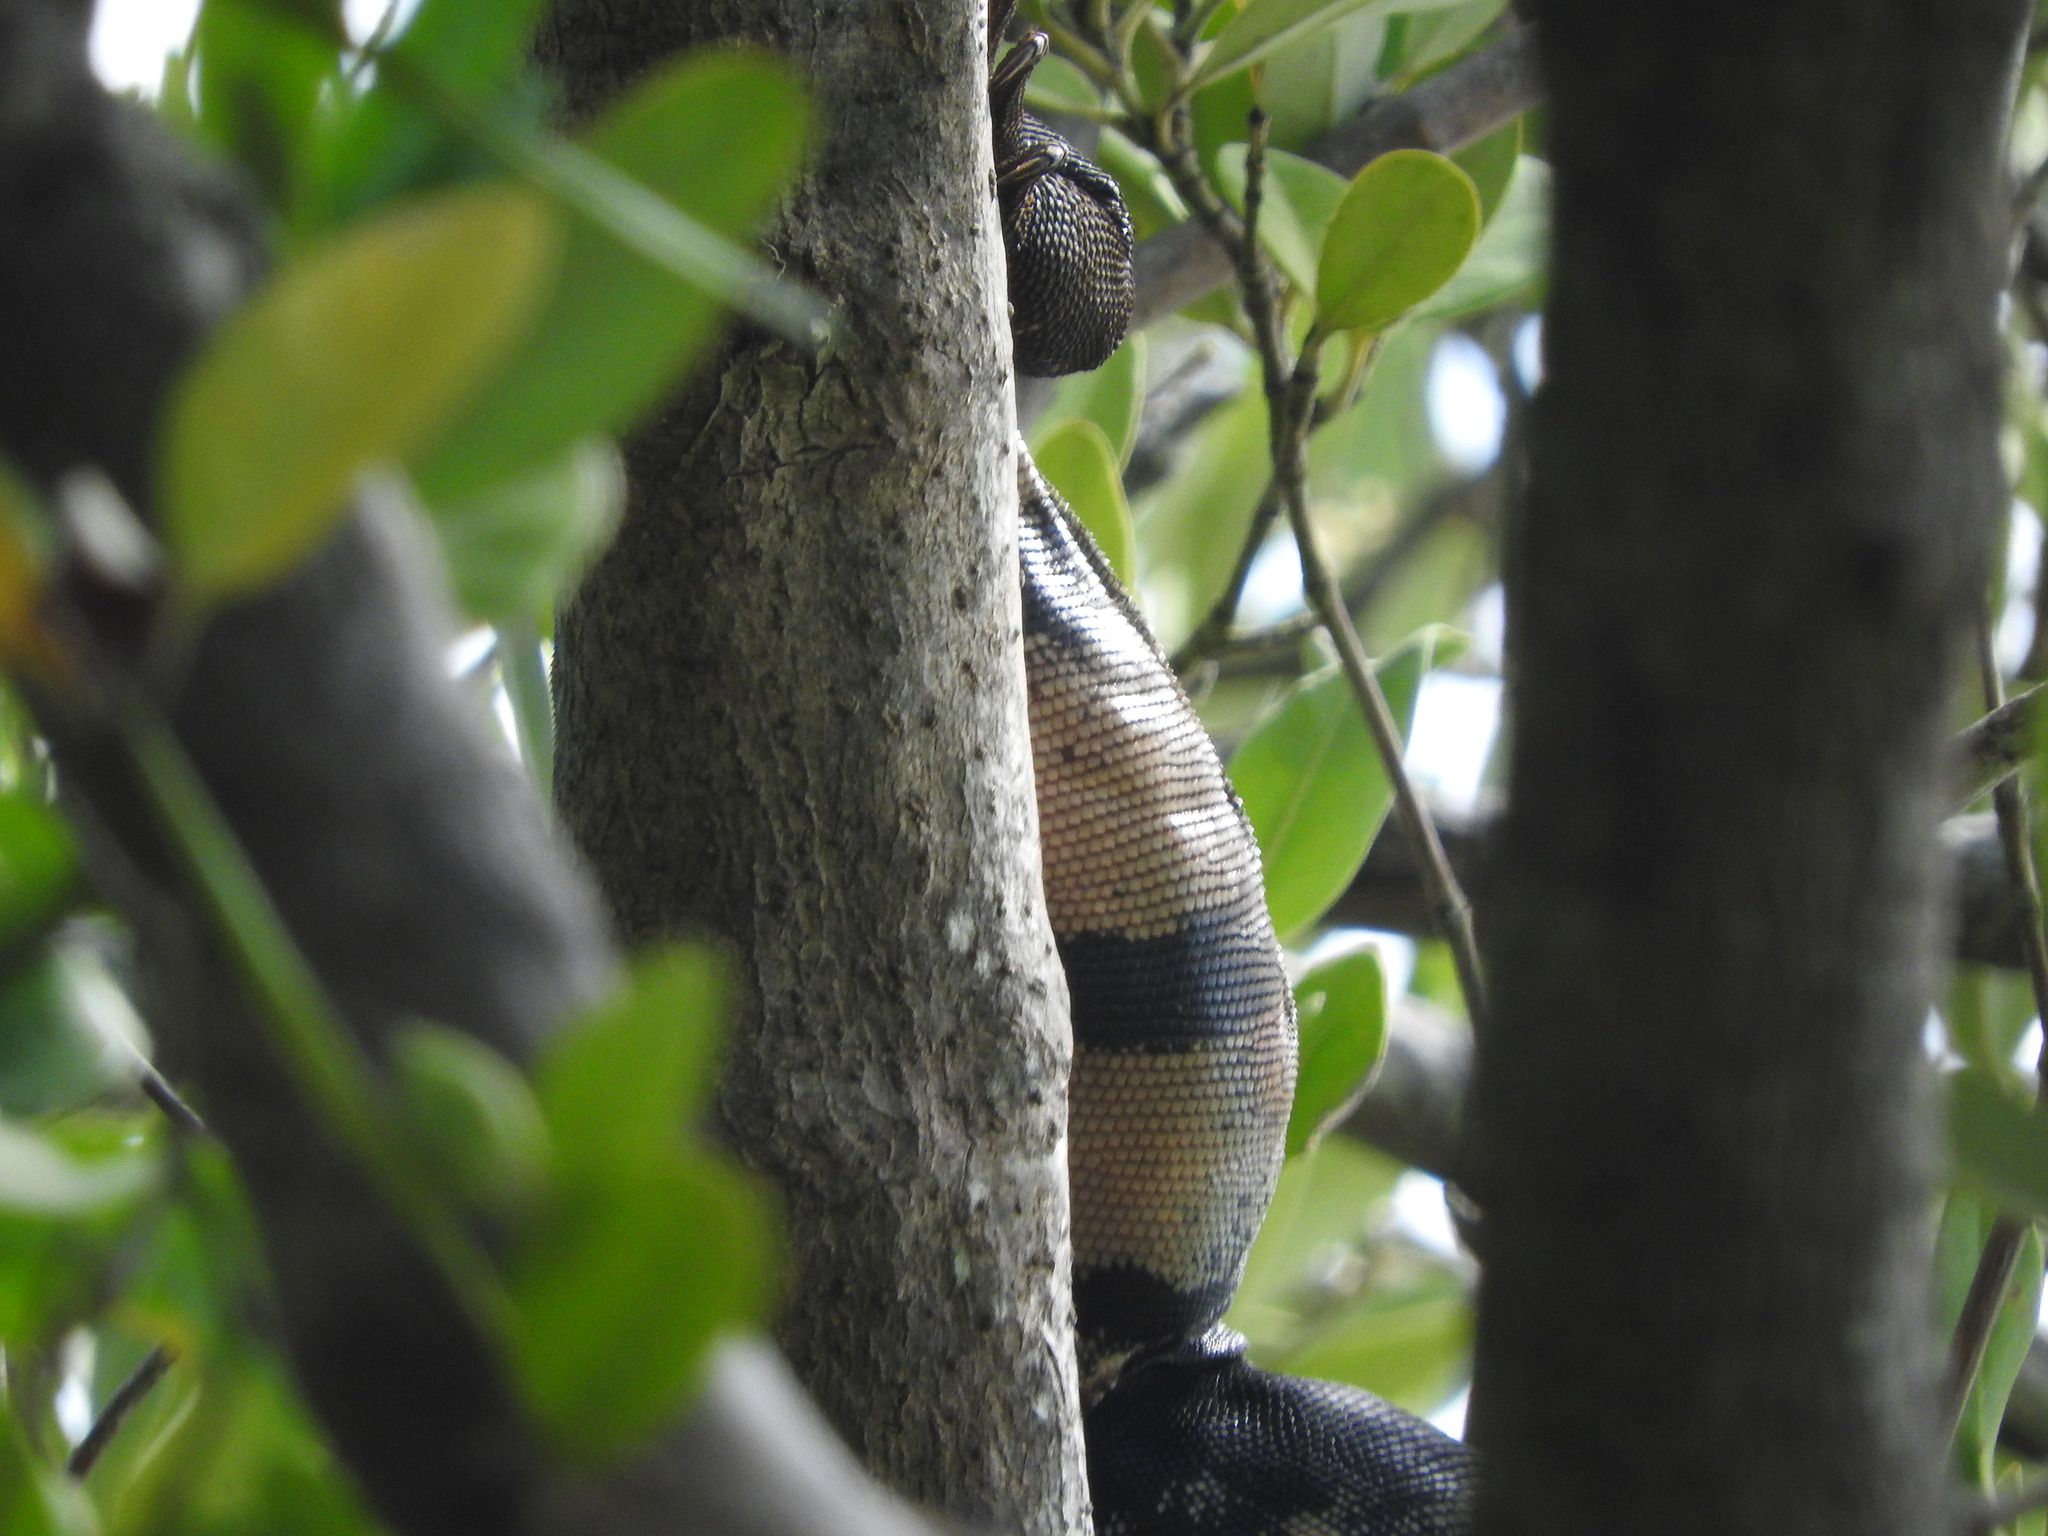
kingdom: Animalia
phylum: Chordata
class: Squamata
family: Iguanidae
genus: Ctenosaura
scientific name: Ctenosaura similis
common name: Black spiny-tailed iguana
